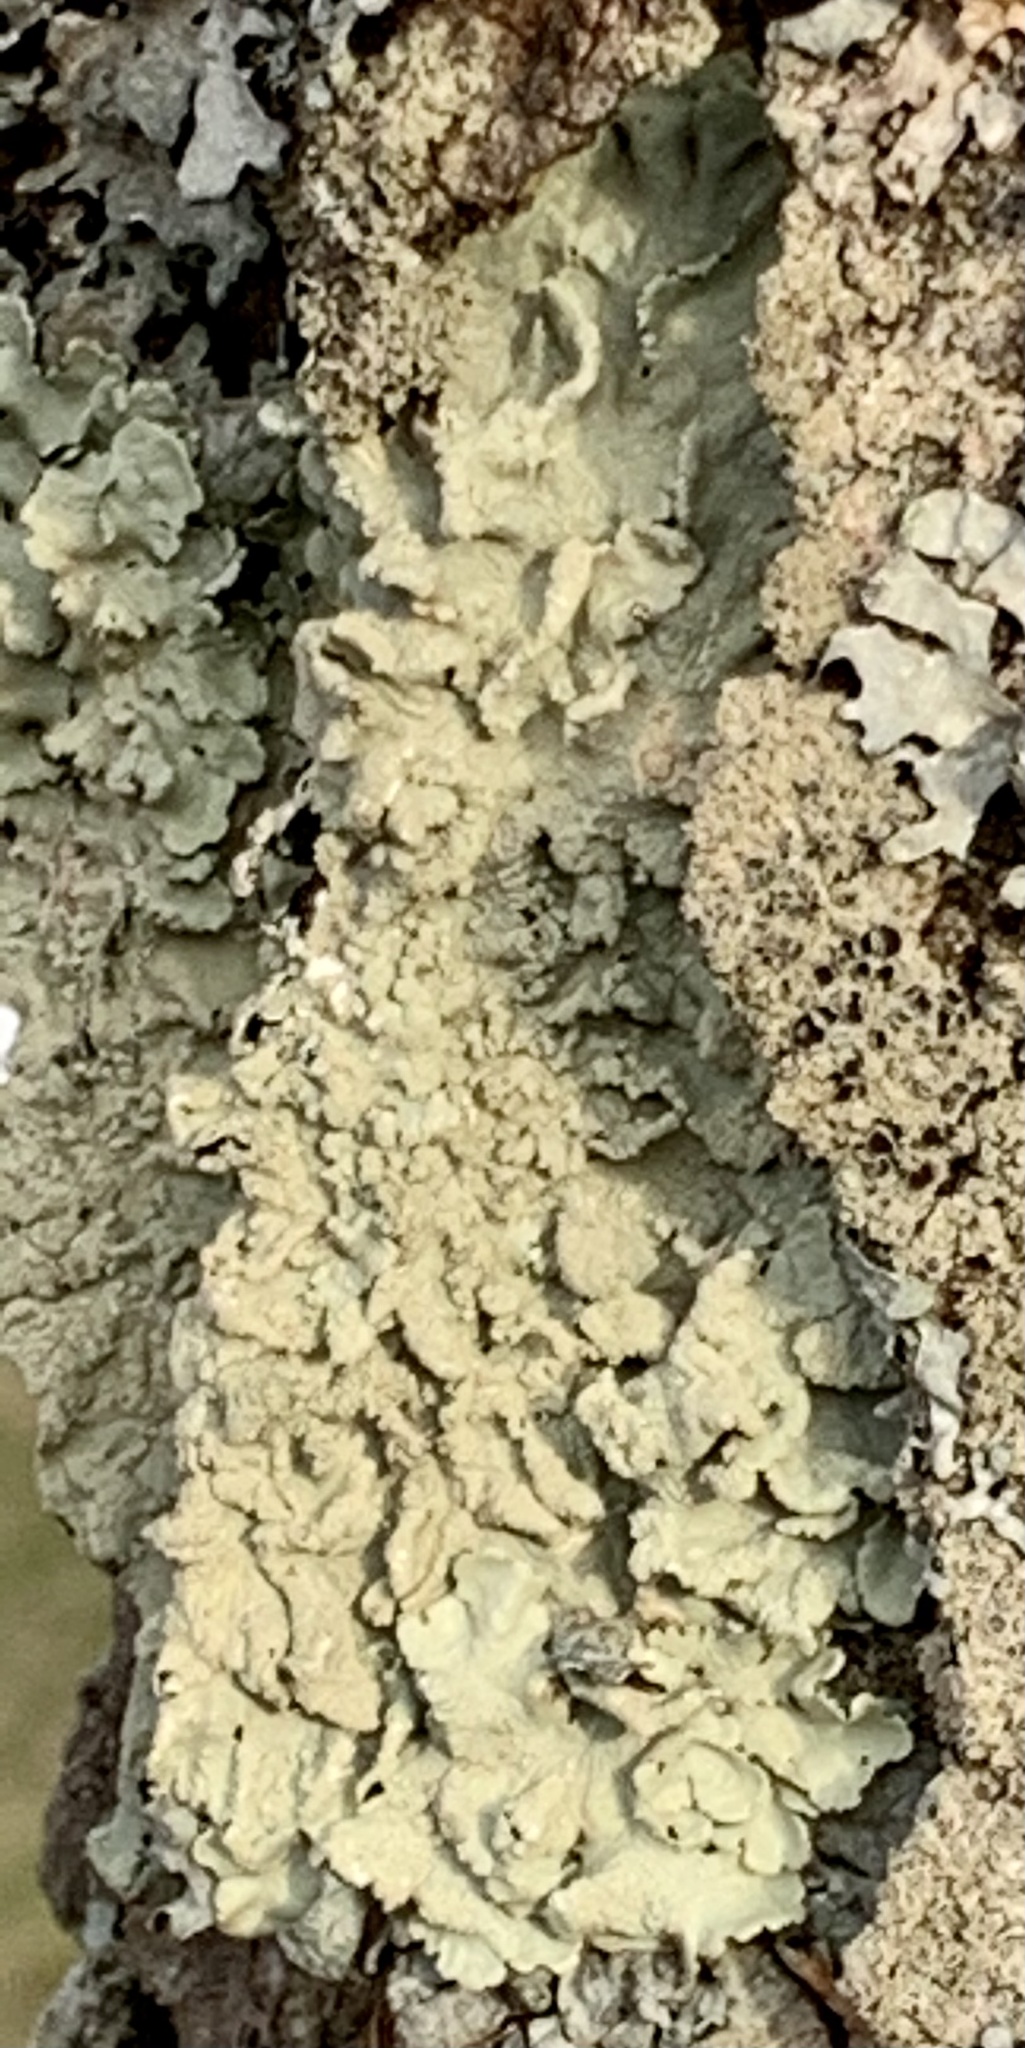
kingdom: Fungi
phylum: Ascomycota
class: Lecanoromycetes
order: Lecanorales
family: Parmeliaceae
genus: Flavoparmelia
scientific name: Flavoparmelia caperata
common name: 40-mile per hour lichen
